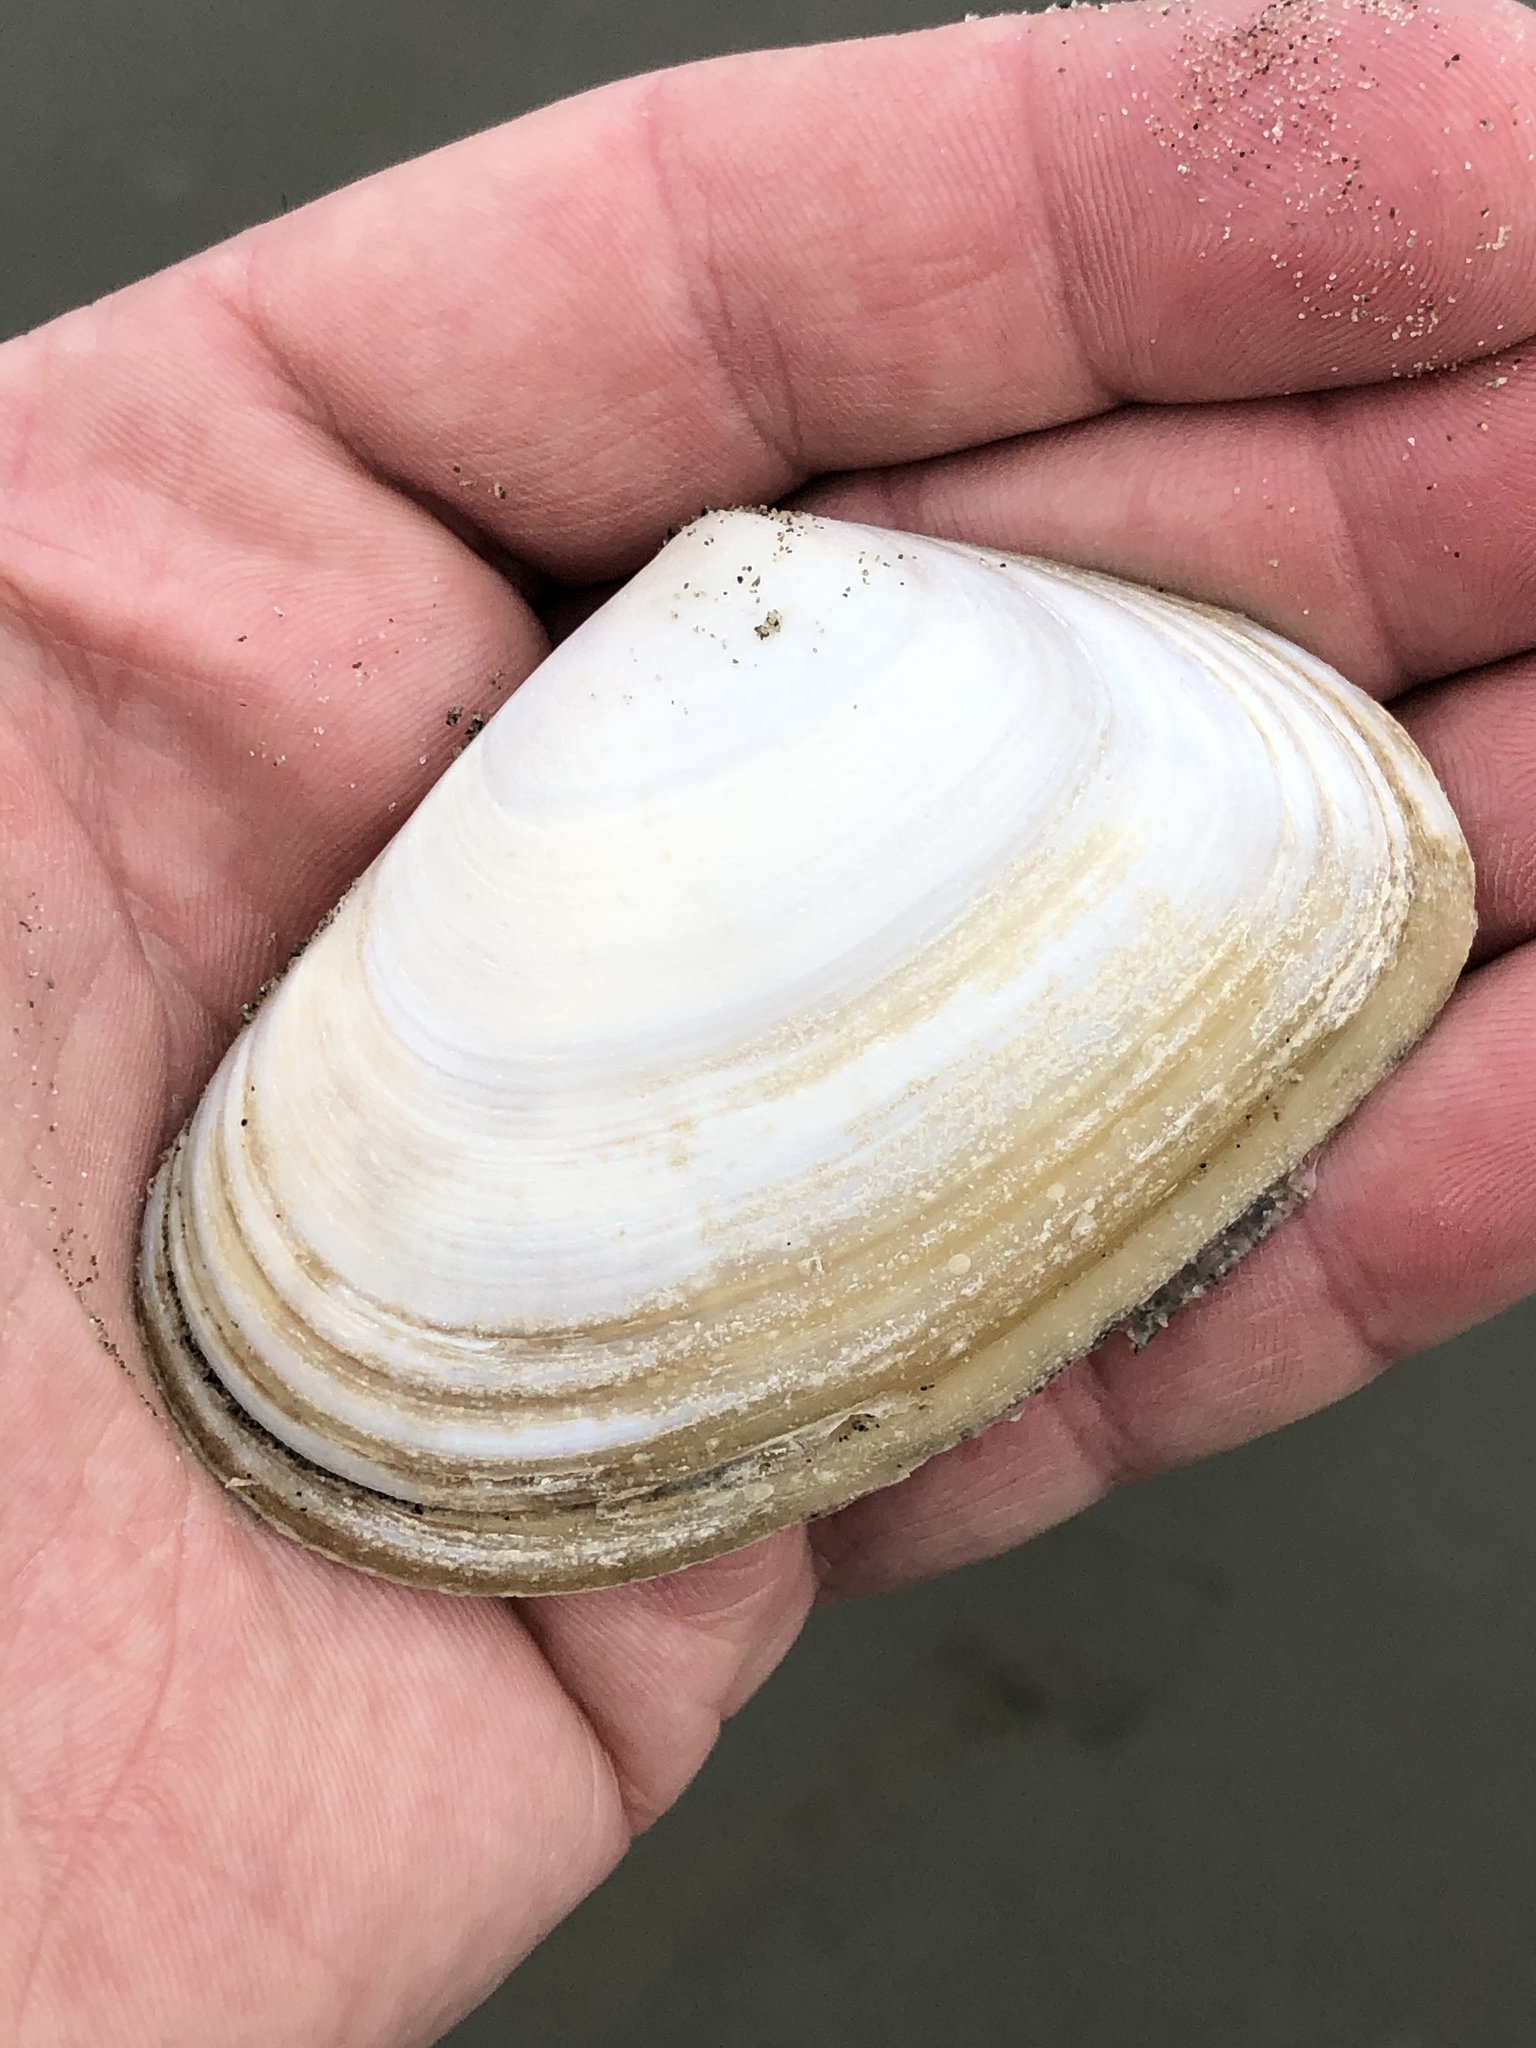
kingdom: Animalia
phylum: Mollusca
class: Bivalvia
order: Venerida
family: Mesodesmatidae
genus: Paphies
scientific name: Paphies donacina
